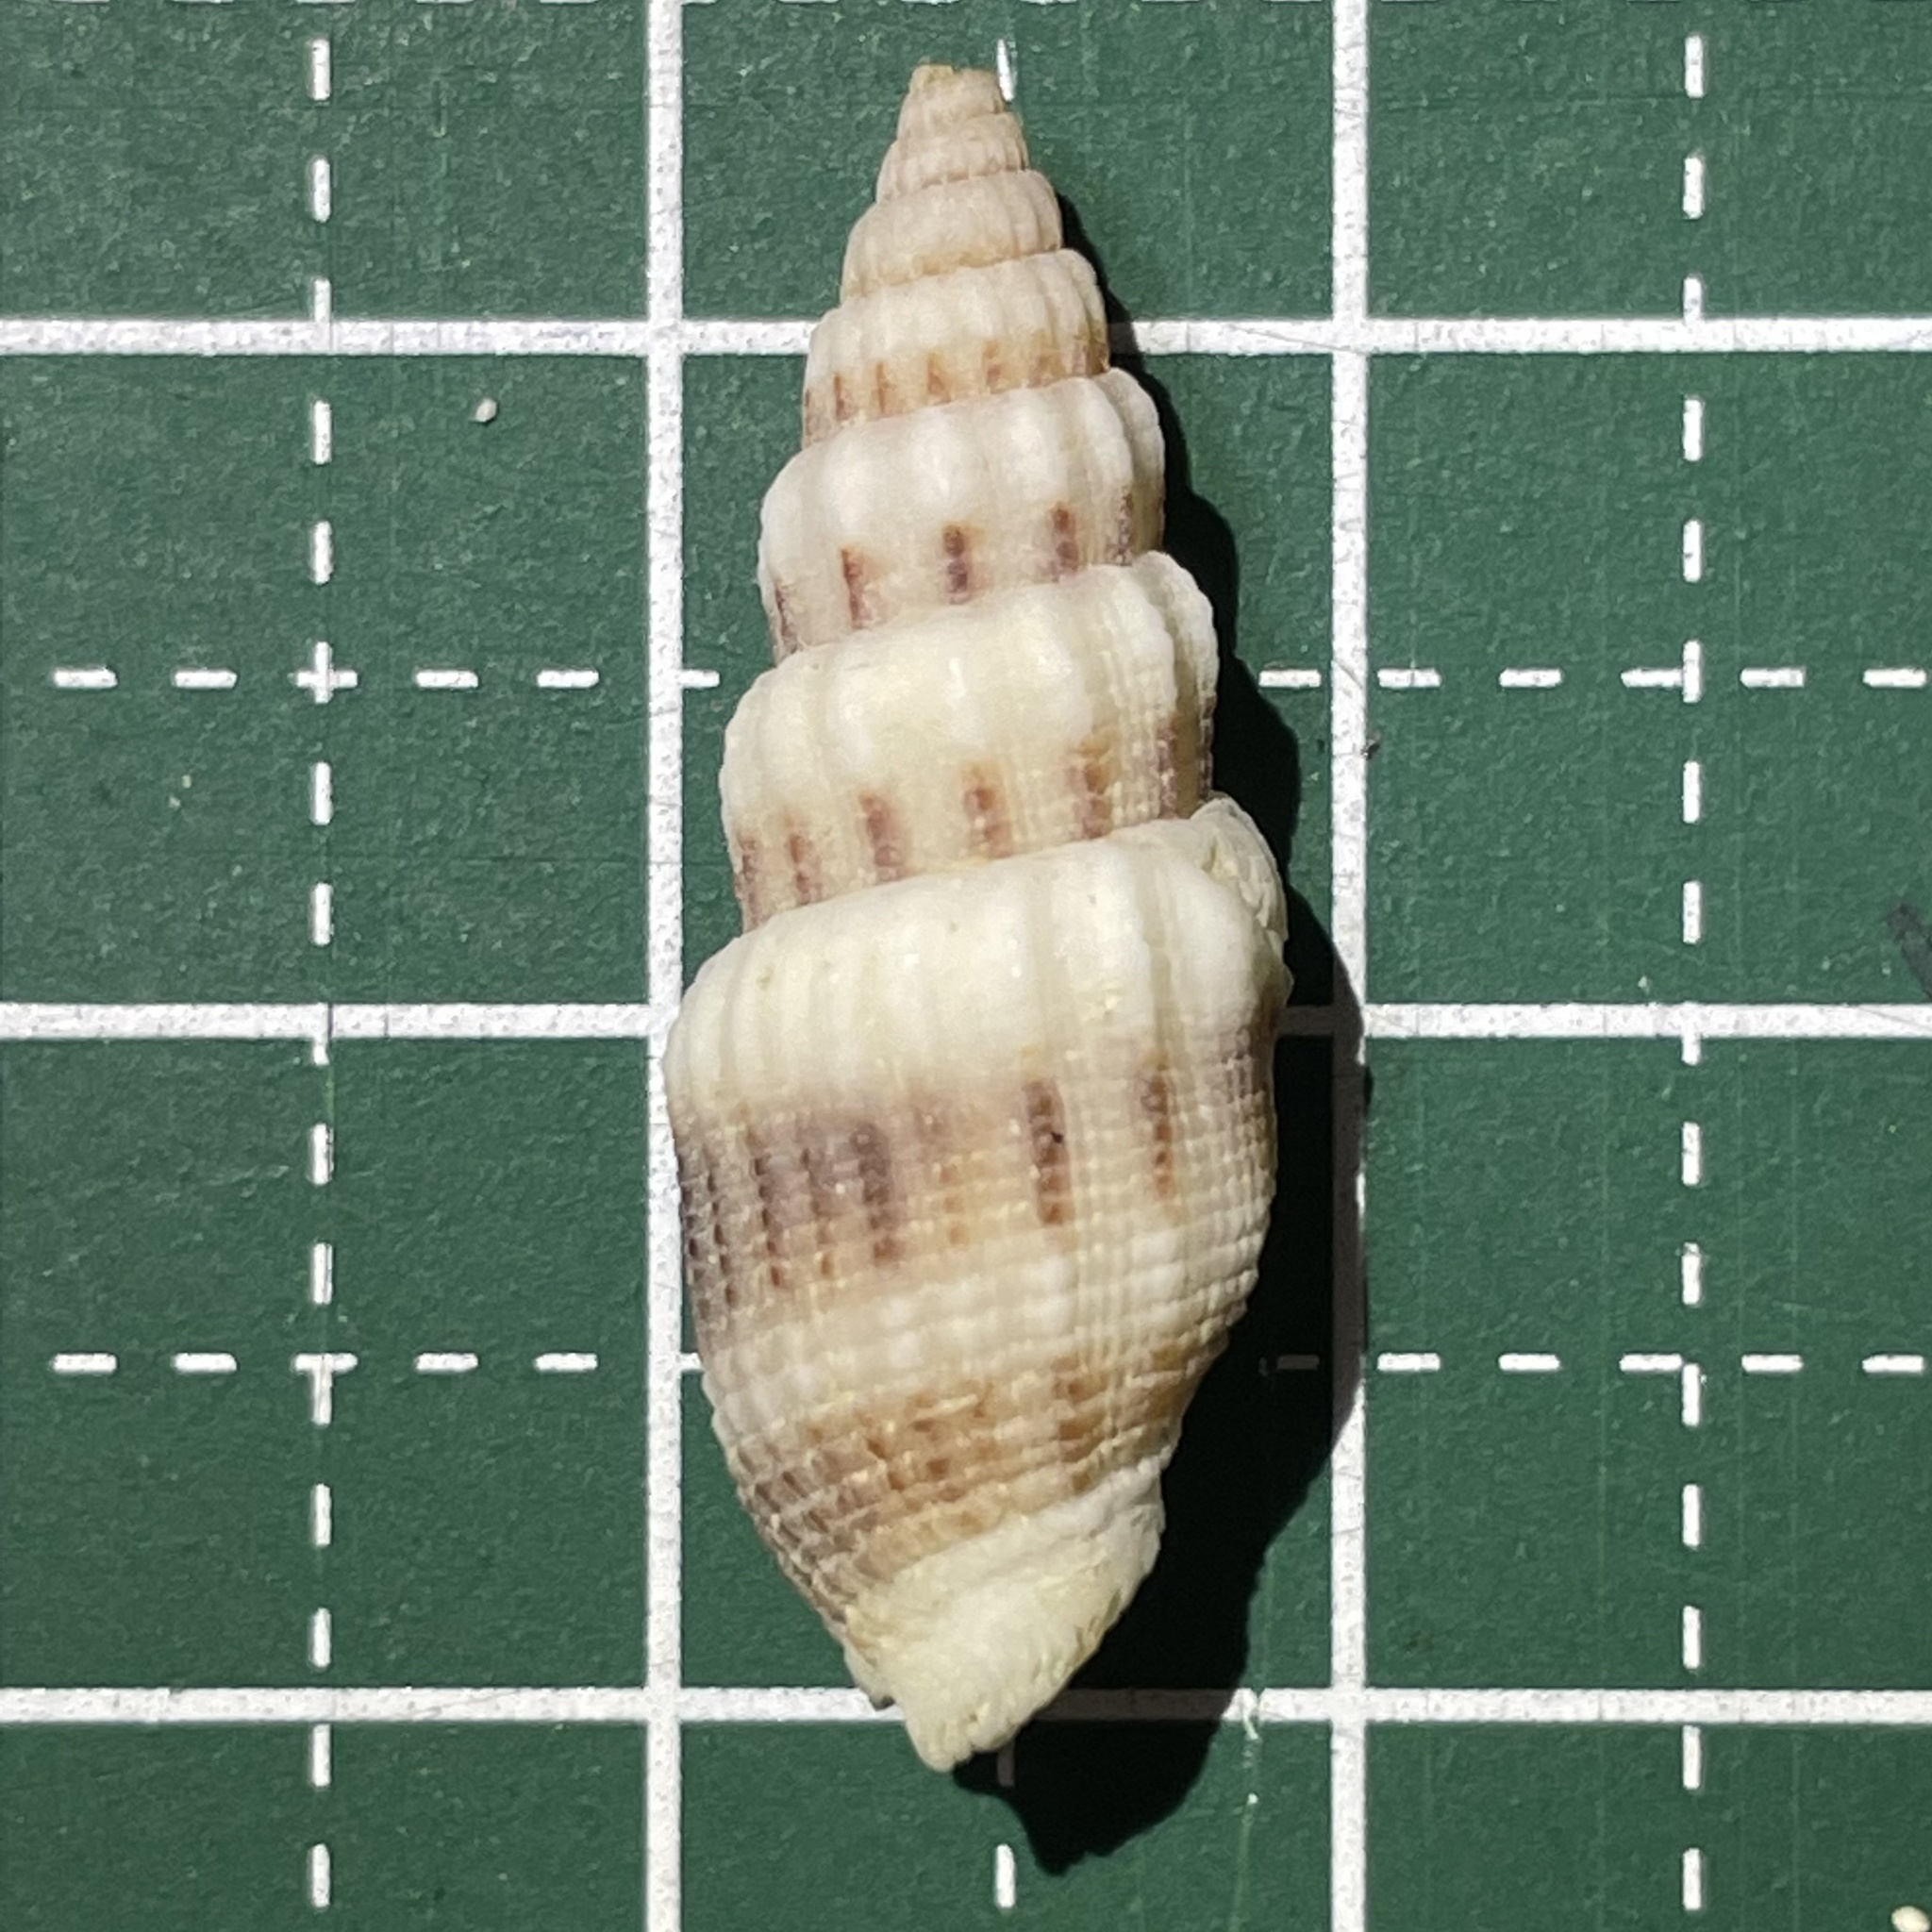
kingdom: Animalia
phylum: Mollusca
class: Gastropoda
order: Neogastropoda
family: Costellariidae
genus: Vexillum
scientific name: Vexillum exasperatum
